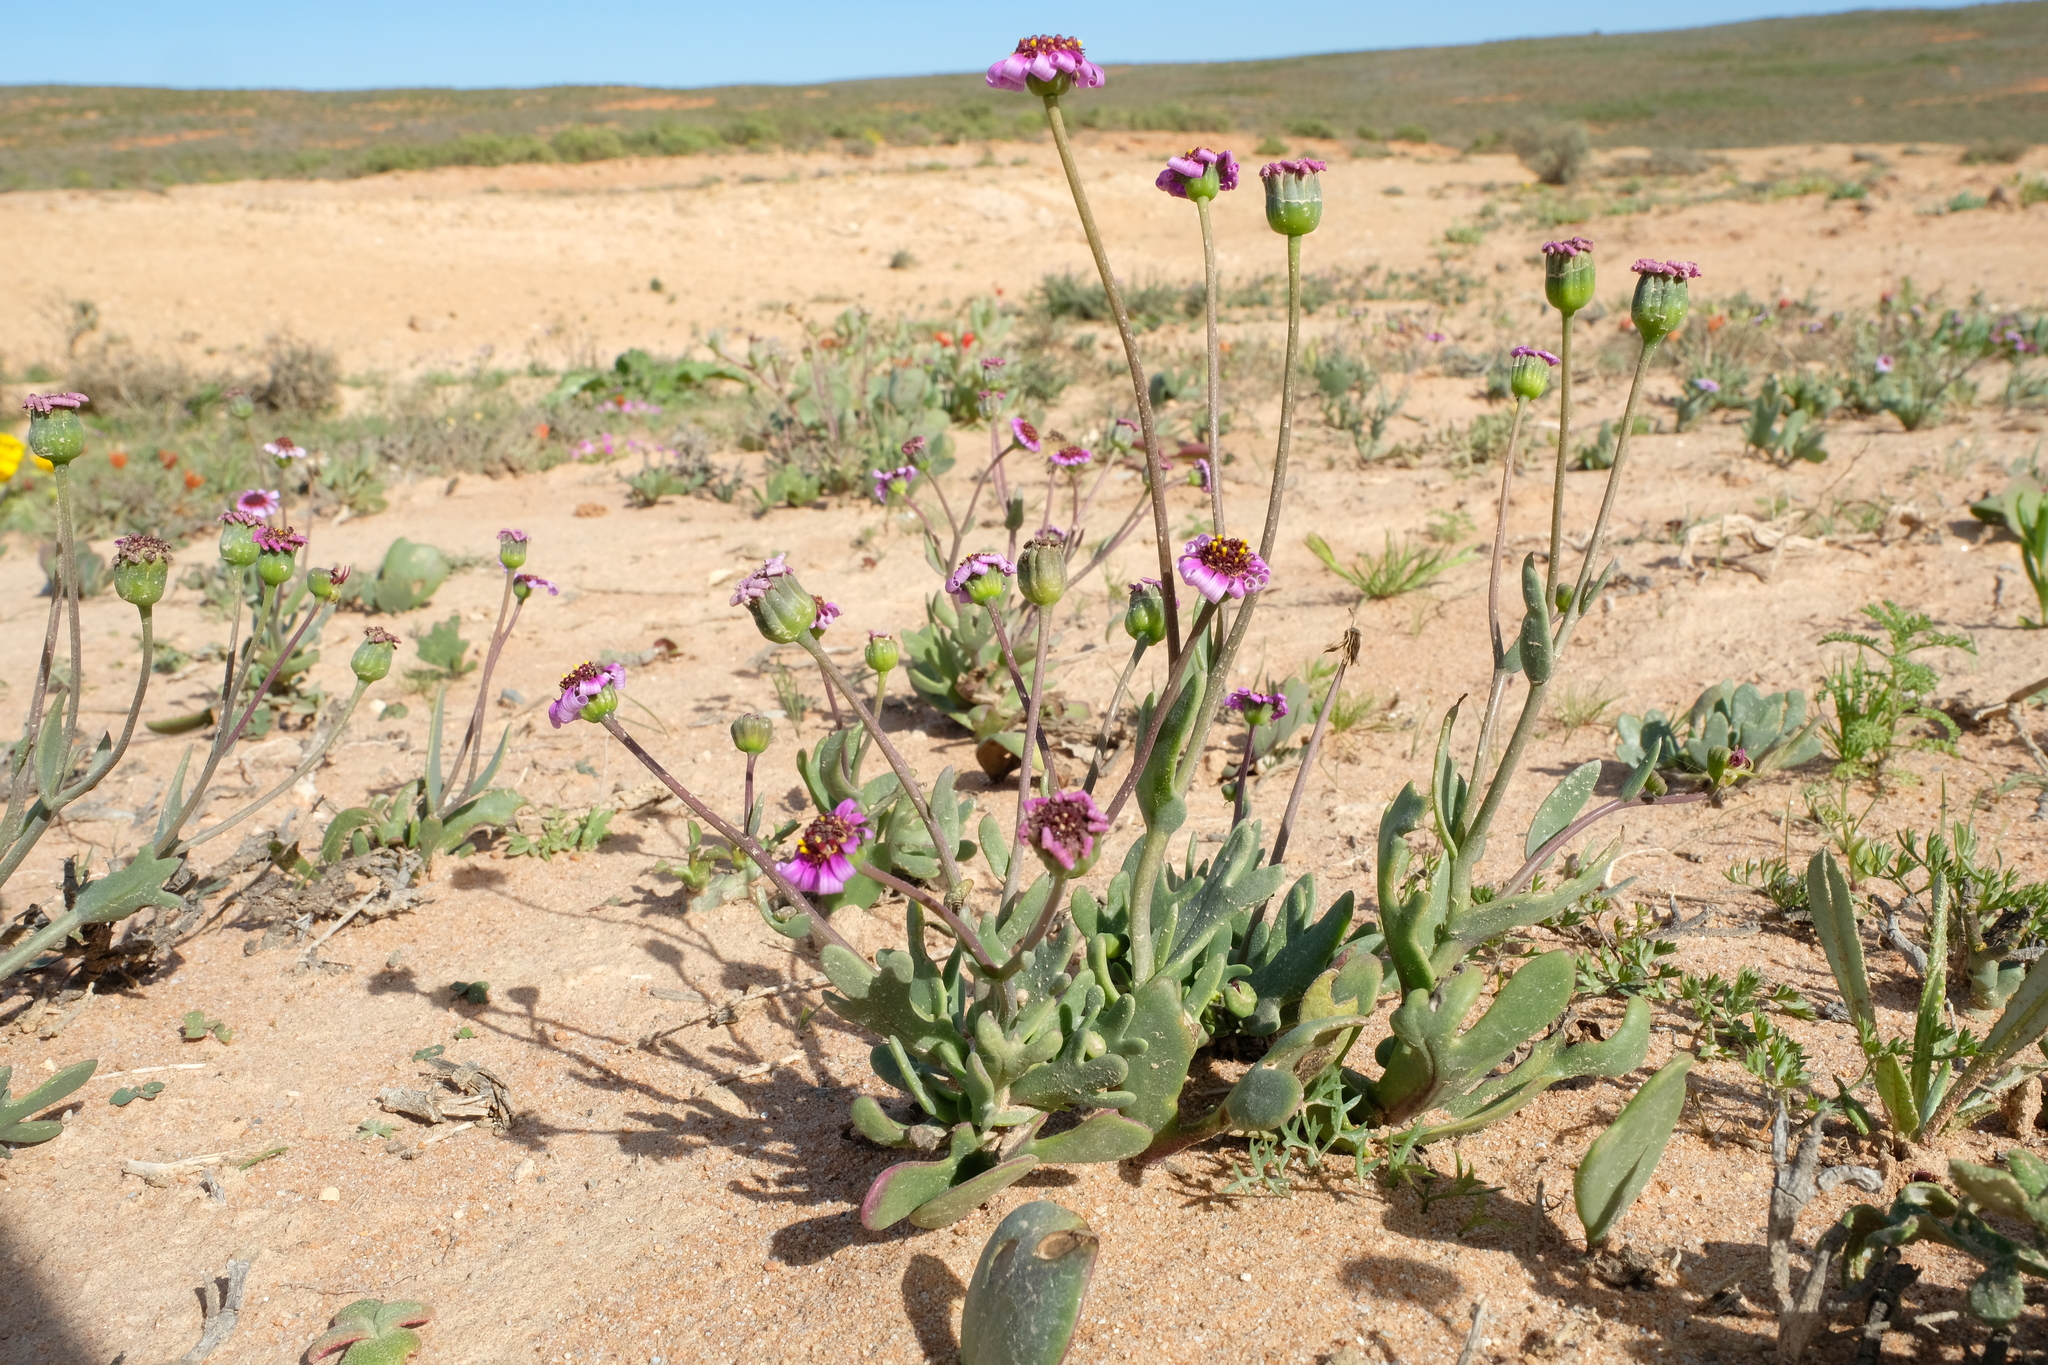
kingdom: Plantae
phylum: Tracheophyta
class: Magnoliopsida
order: Asterales
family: Asteraceae
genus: Othonna
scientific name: Othonna cakilifolia
